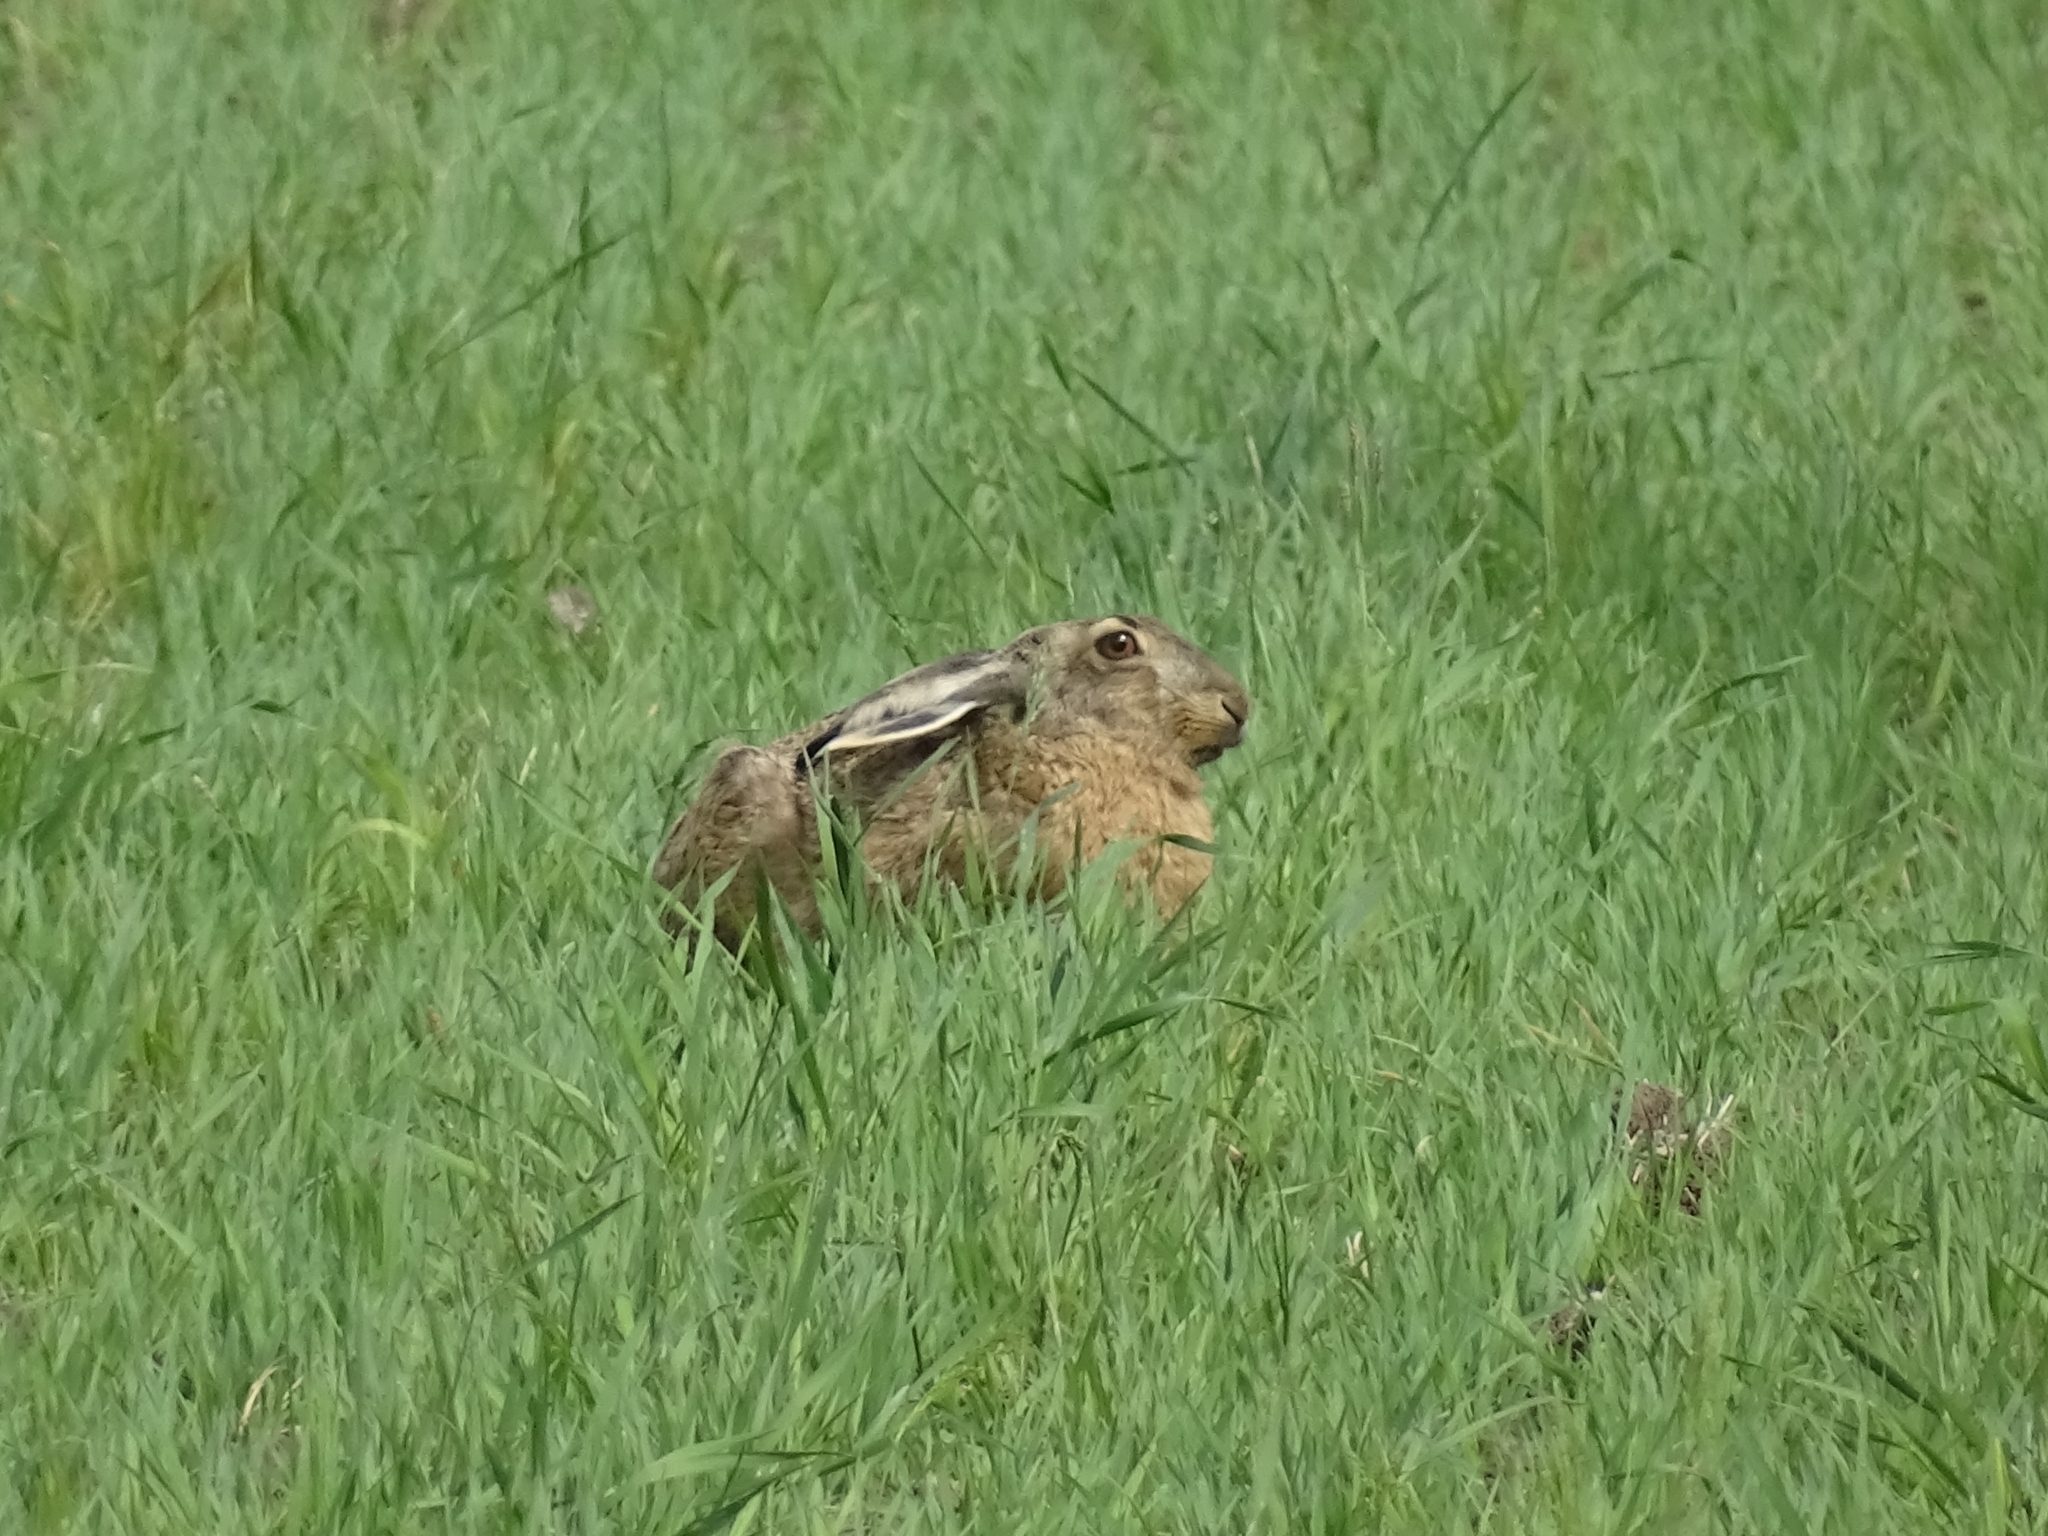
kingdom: Animalia
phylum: Chordata
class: Mammalia
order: Lagomorpha
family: Leporidae
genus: Lepus
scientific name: Lepus europaeus
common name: European hare
